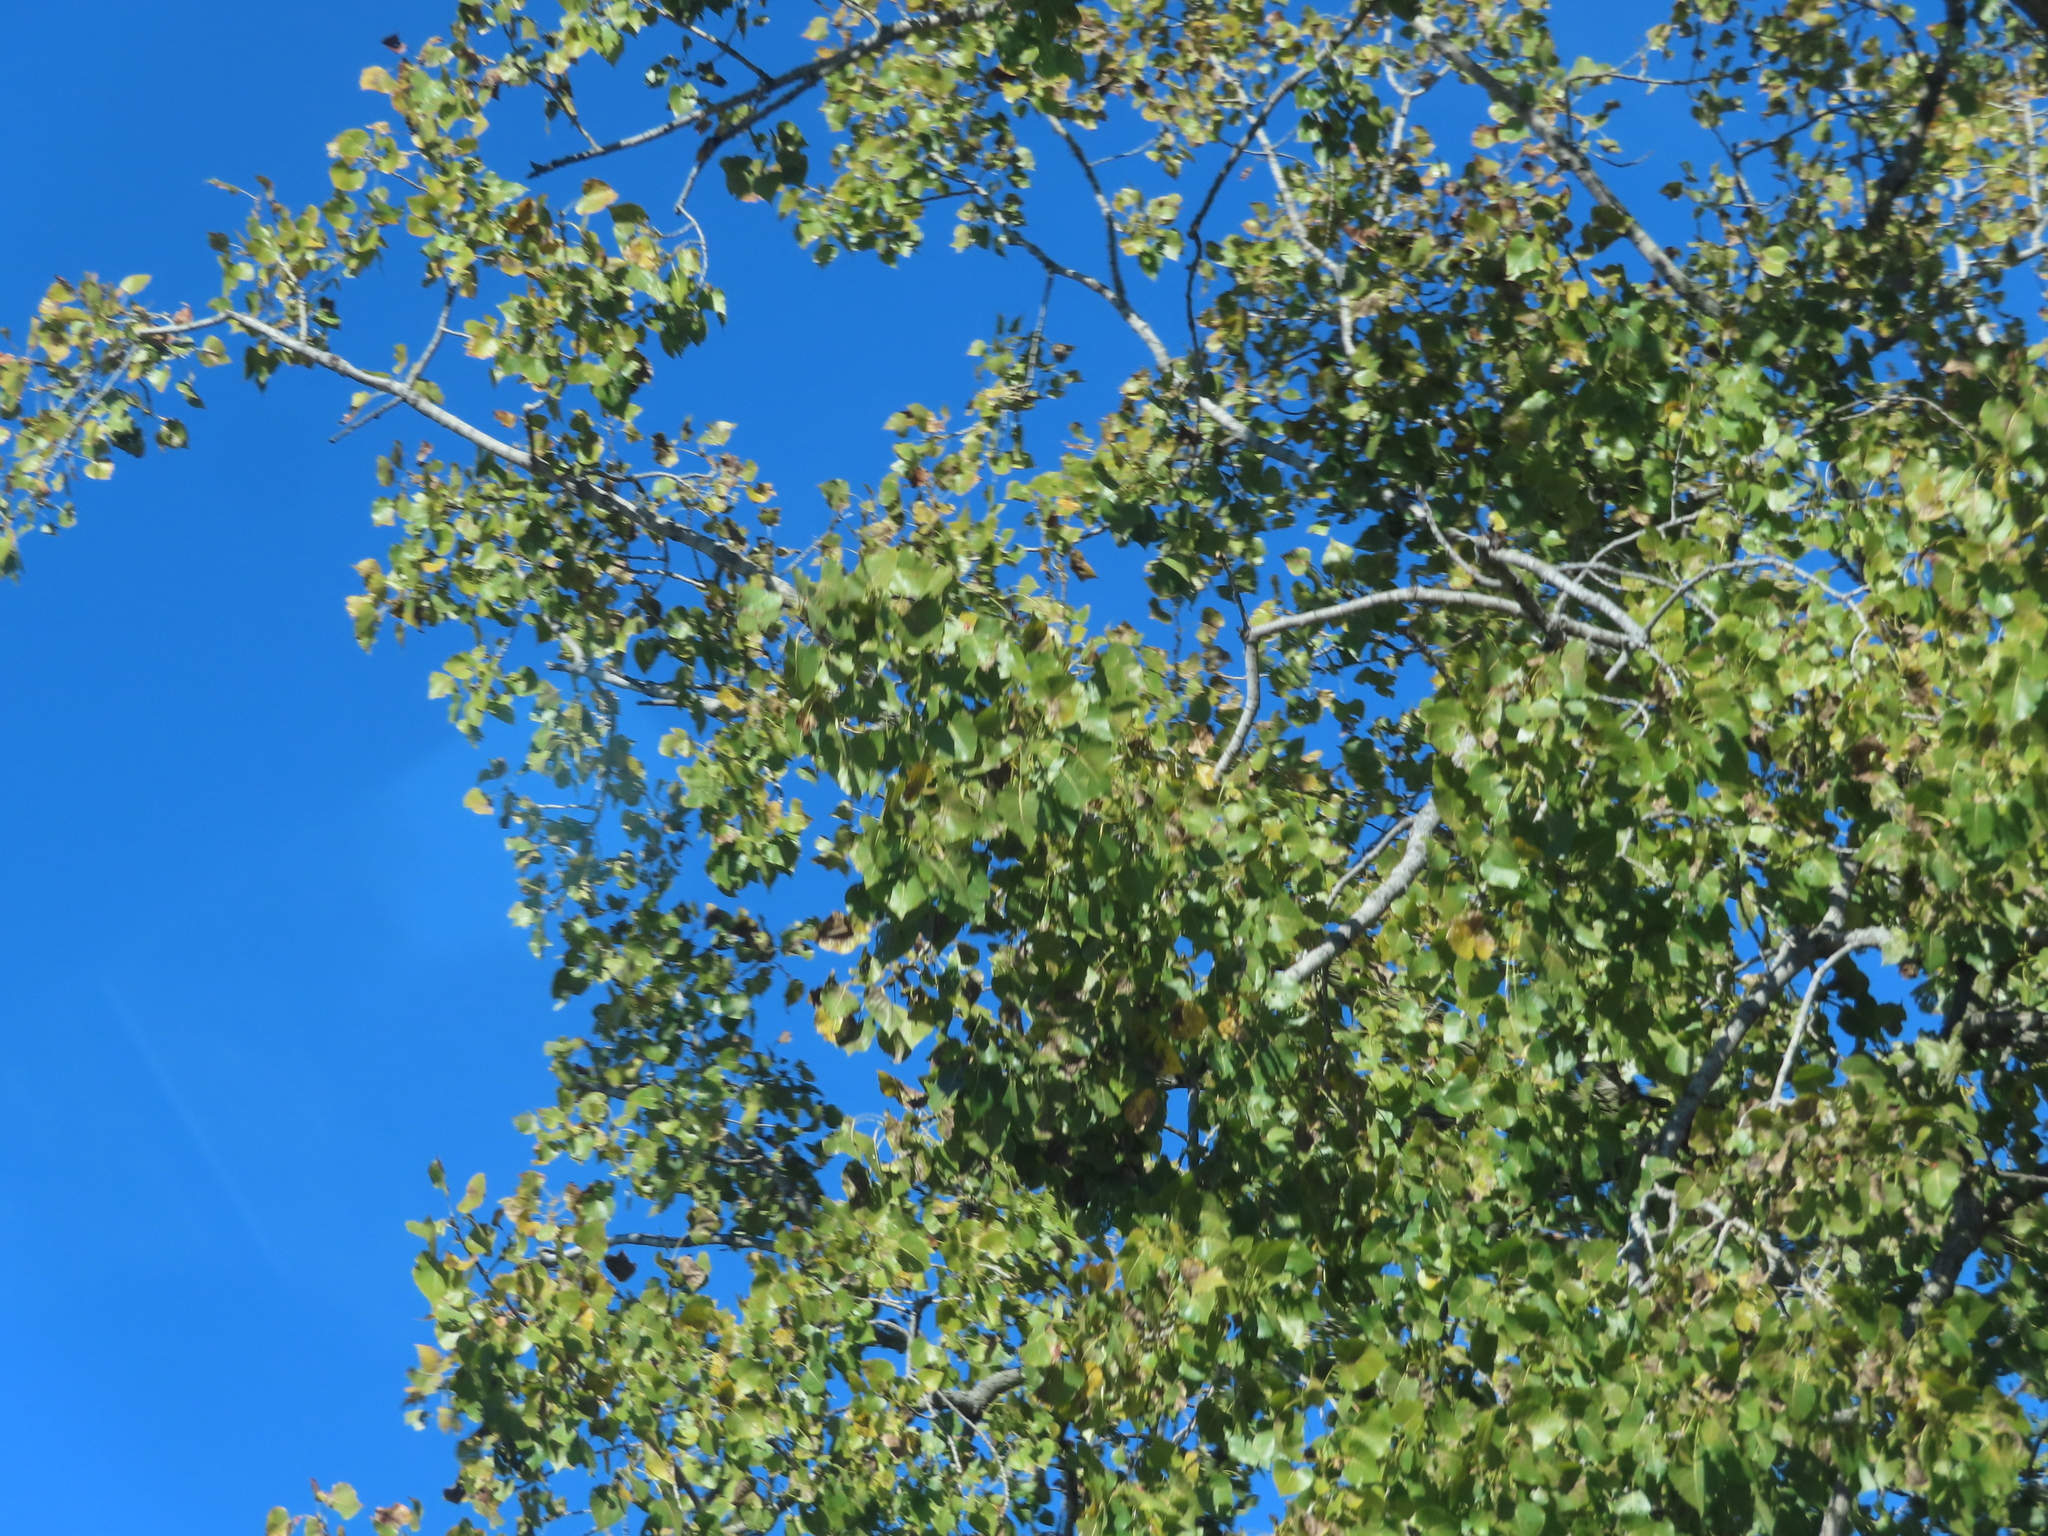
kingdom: Plantae
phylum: Tracheophyta
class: Magnoliopsida
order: Malpighiales
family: Salicaceae
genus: Populus
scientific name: Populus deltoides
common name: Eastern cottonwood
